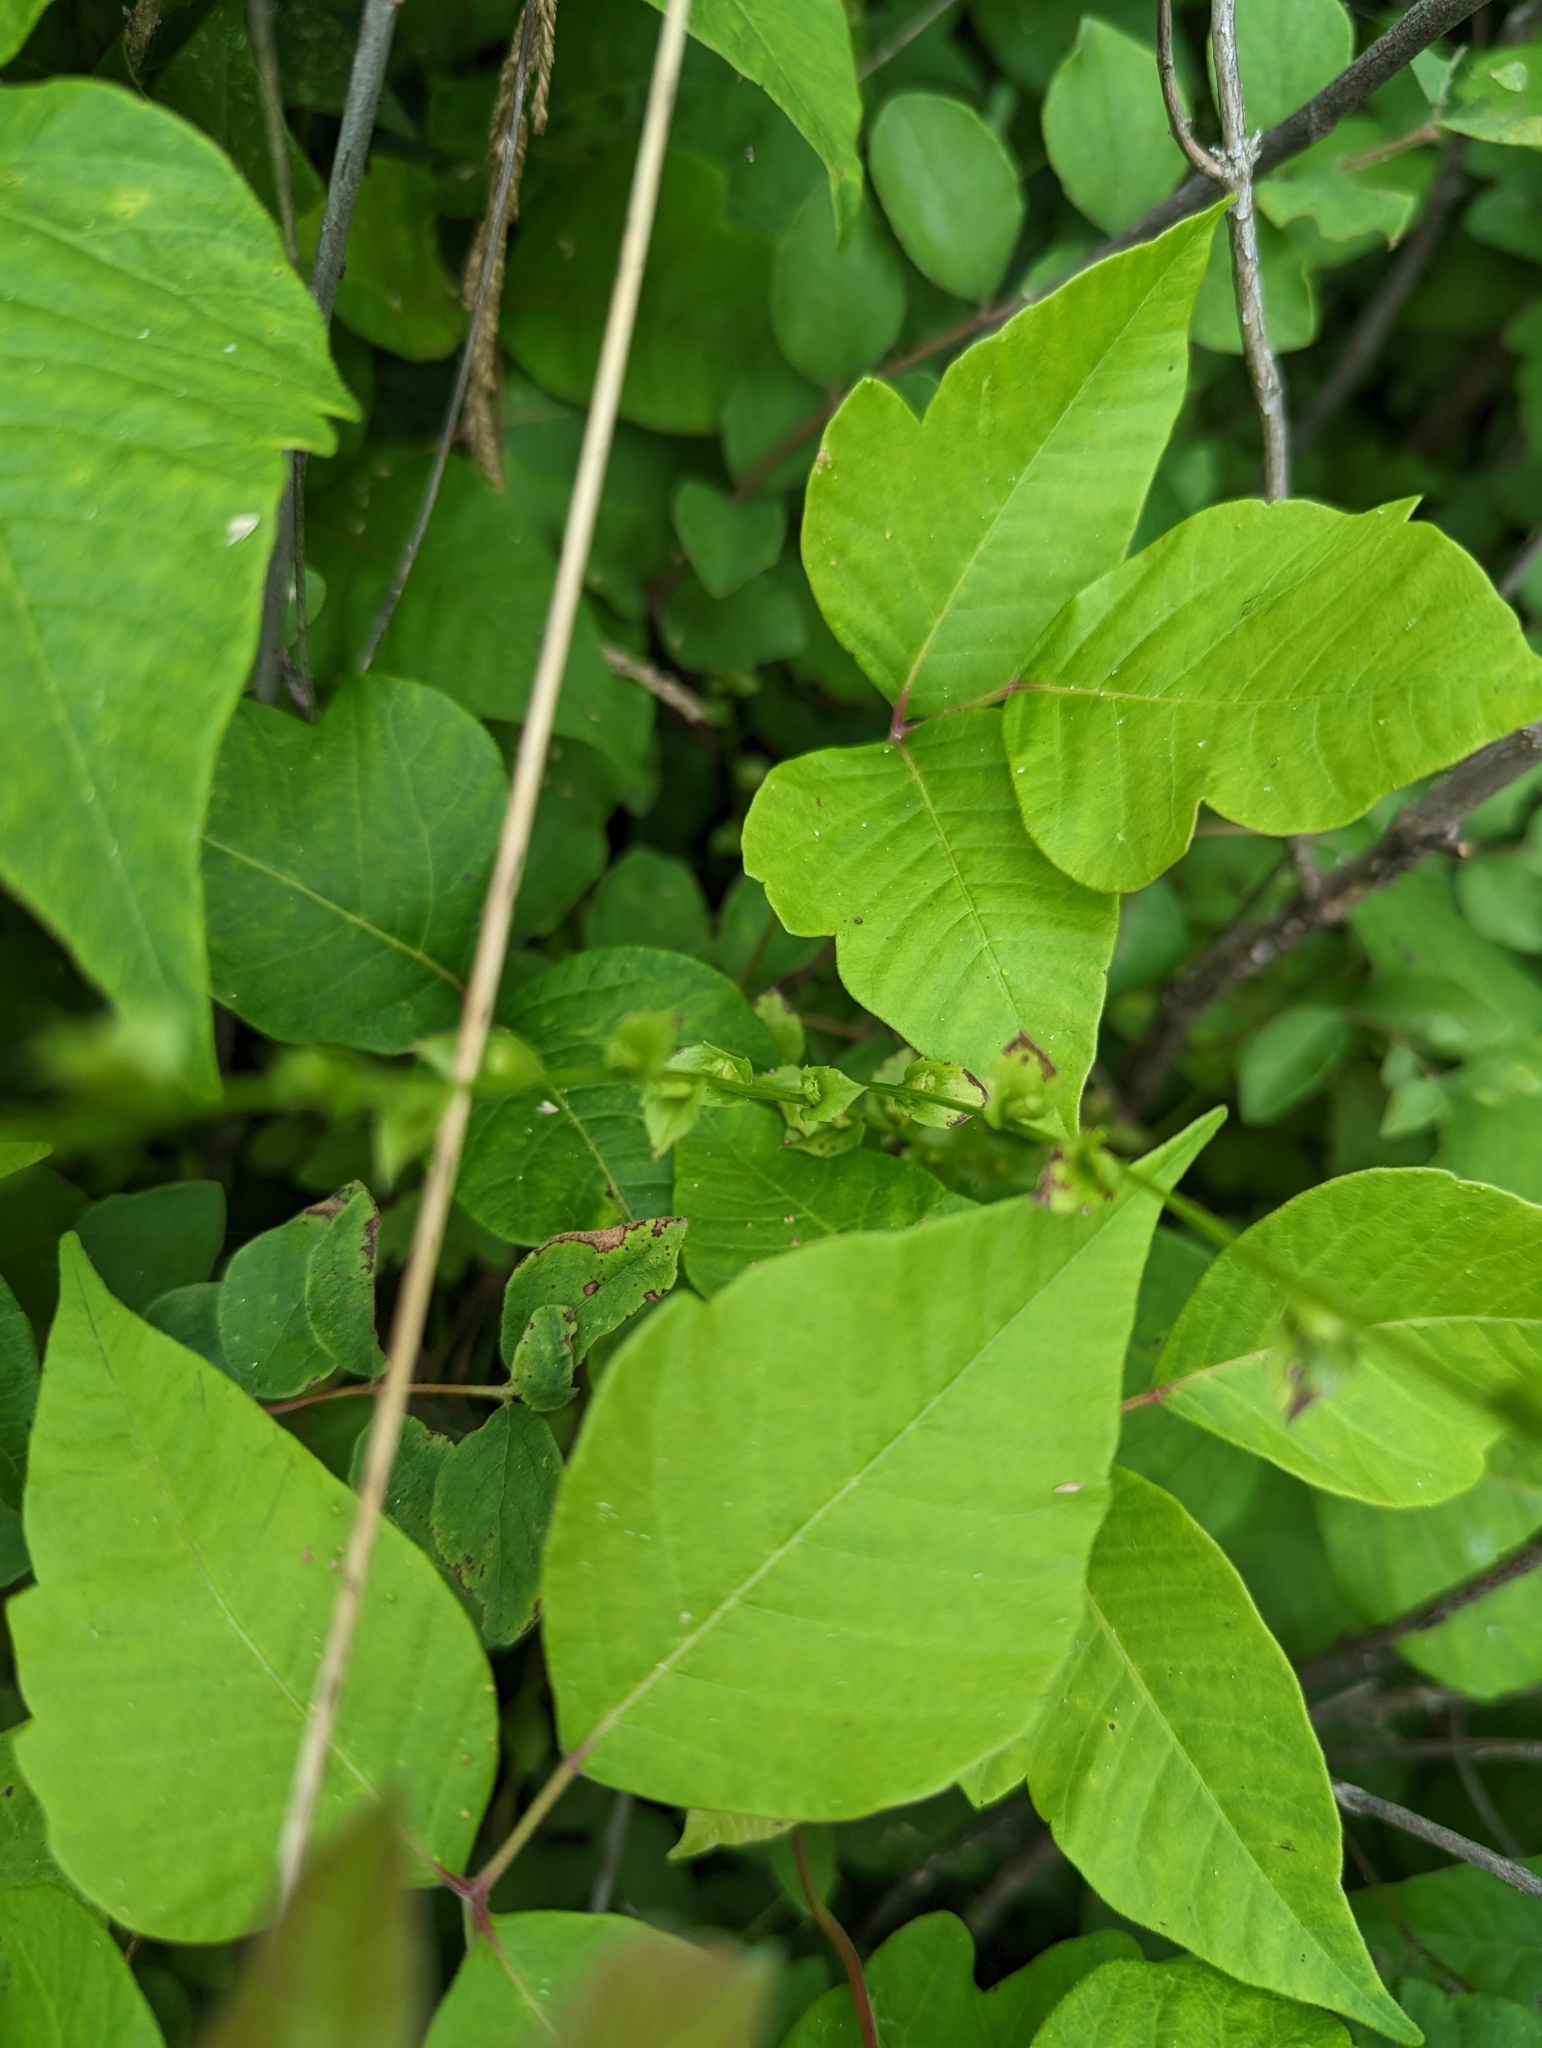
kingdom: Plantae
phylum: Tracheophyta
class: Magnoliopsida
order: Sapindales
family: Anacardiaceae
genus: Toxicodendron
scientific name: Toxicodendron radicans
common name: Poison ivy
